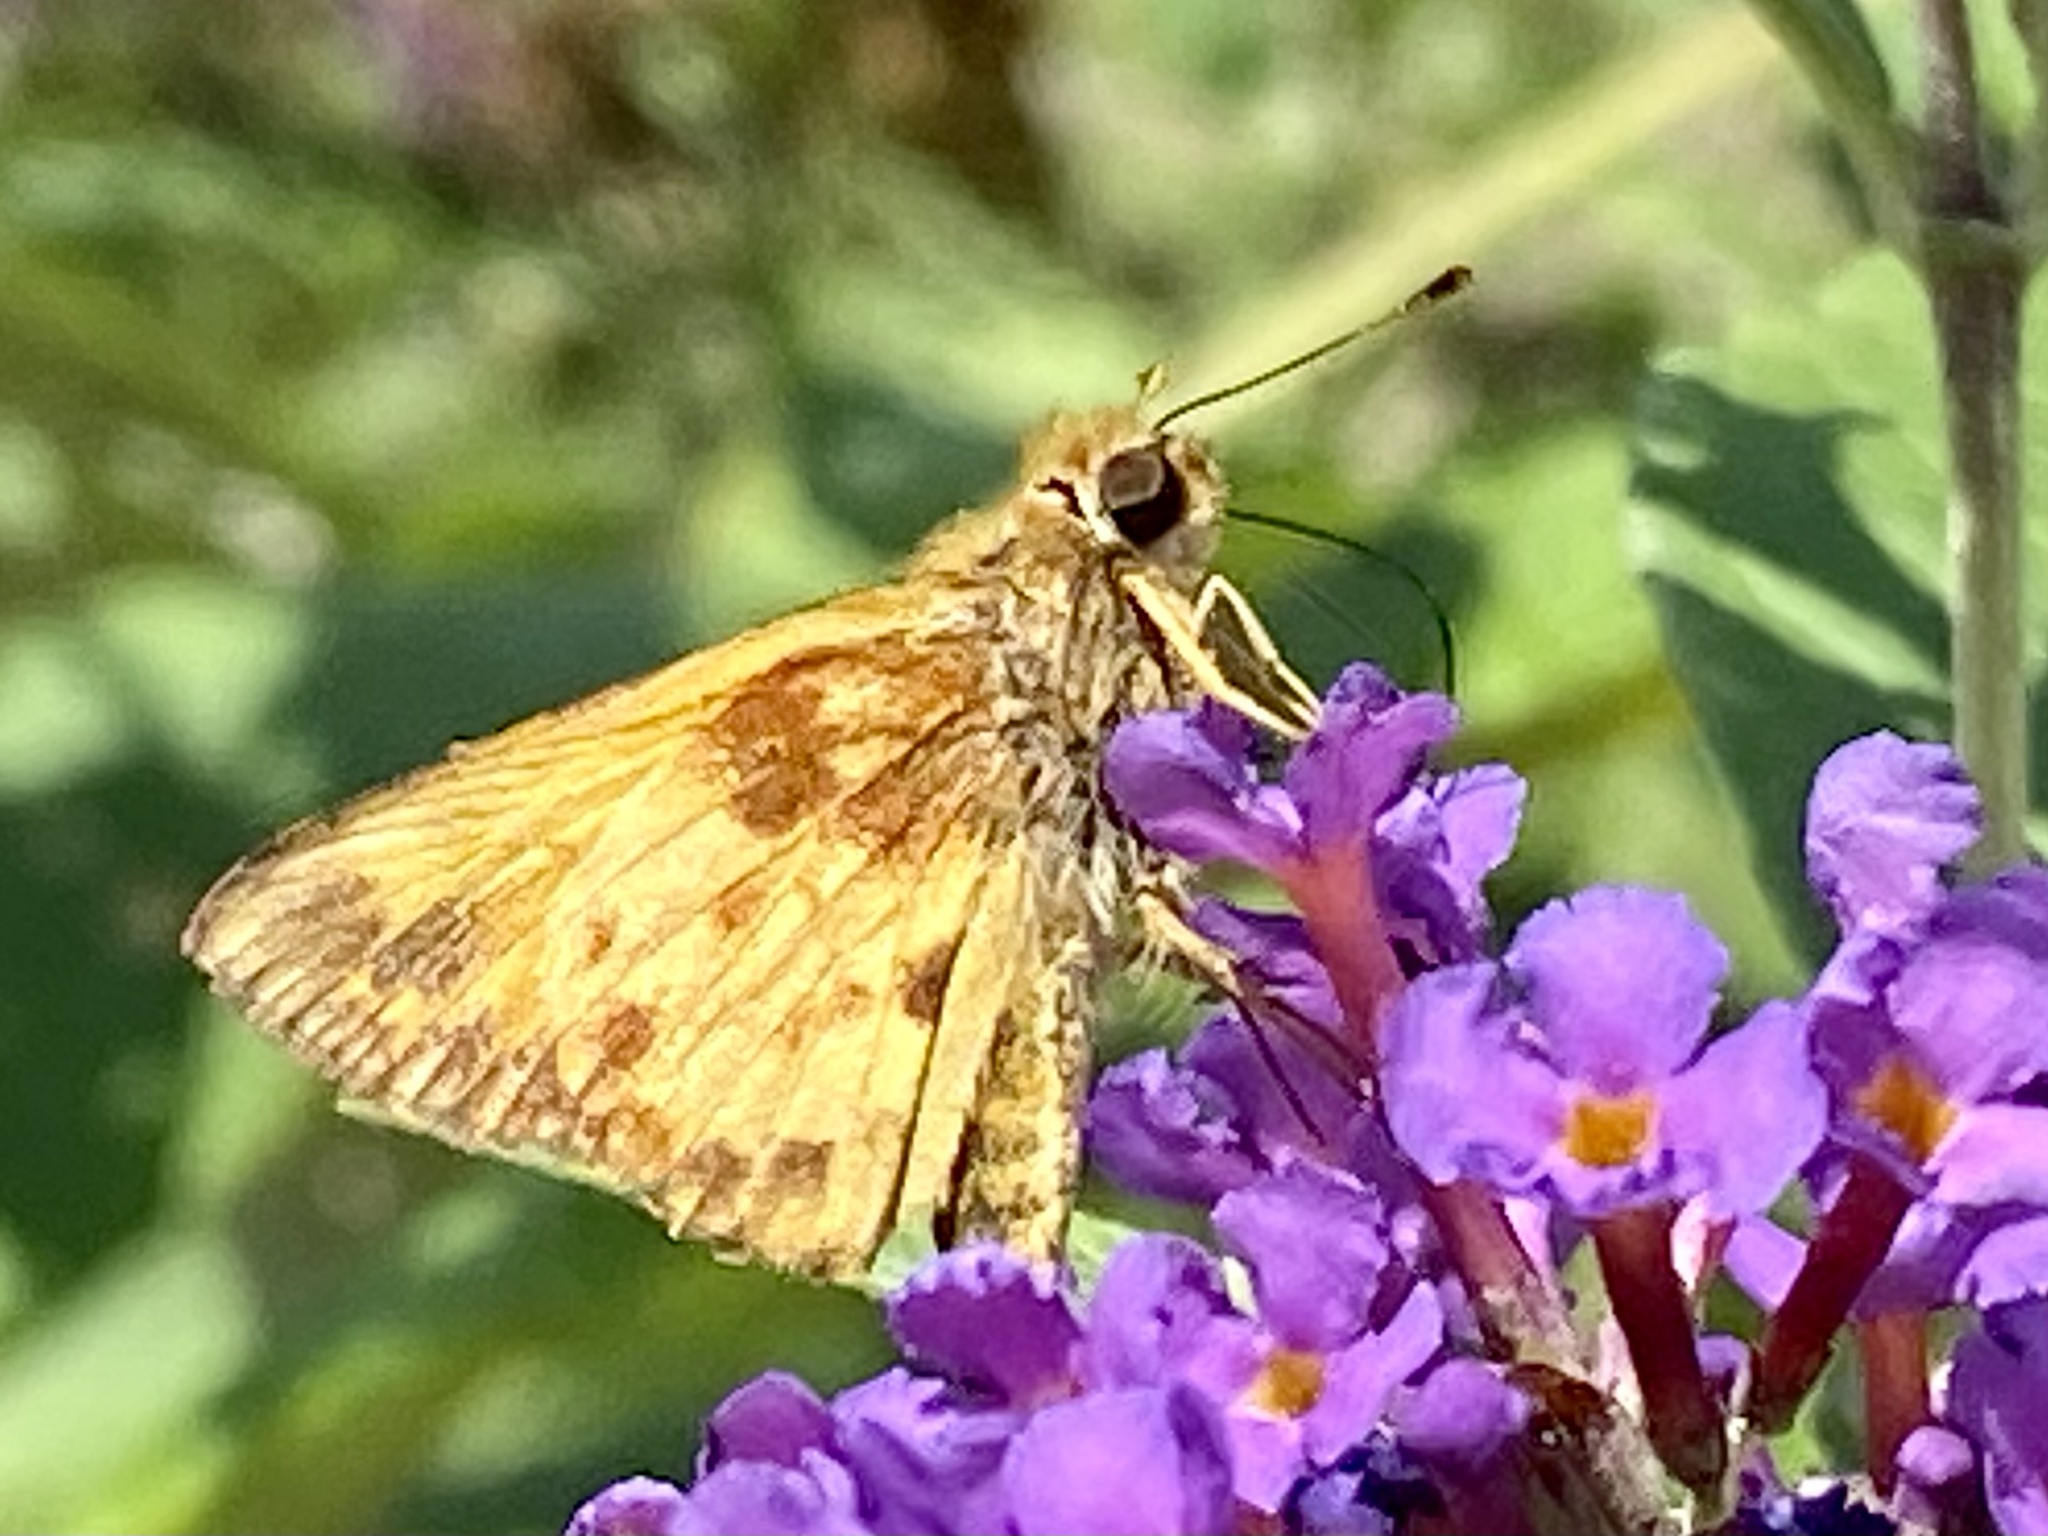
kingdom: Animalia
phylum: Arthropoda
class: Insecta
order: Lepidoptera
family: Hesperiidae
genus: Lon
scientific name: Lon zabulon
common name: Zabulon skipper
